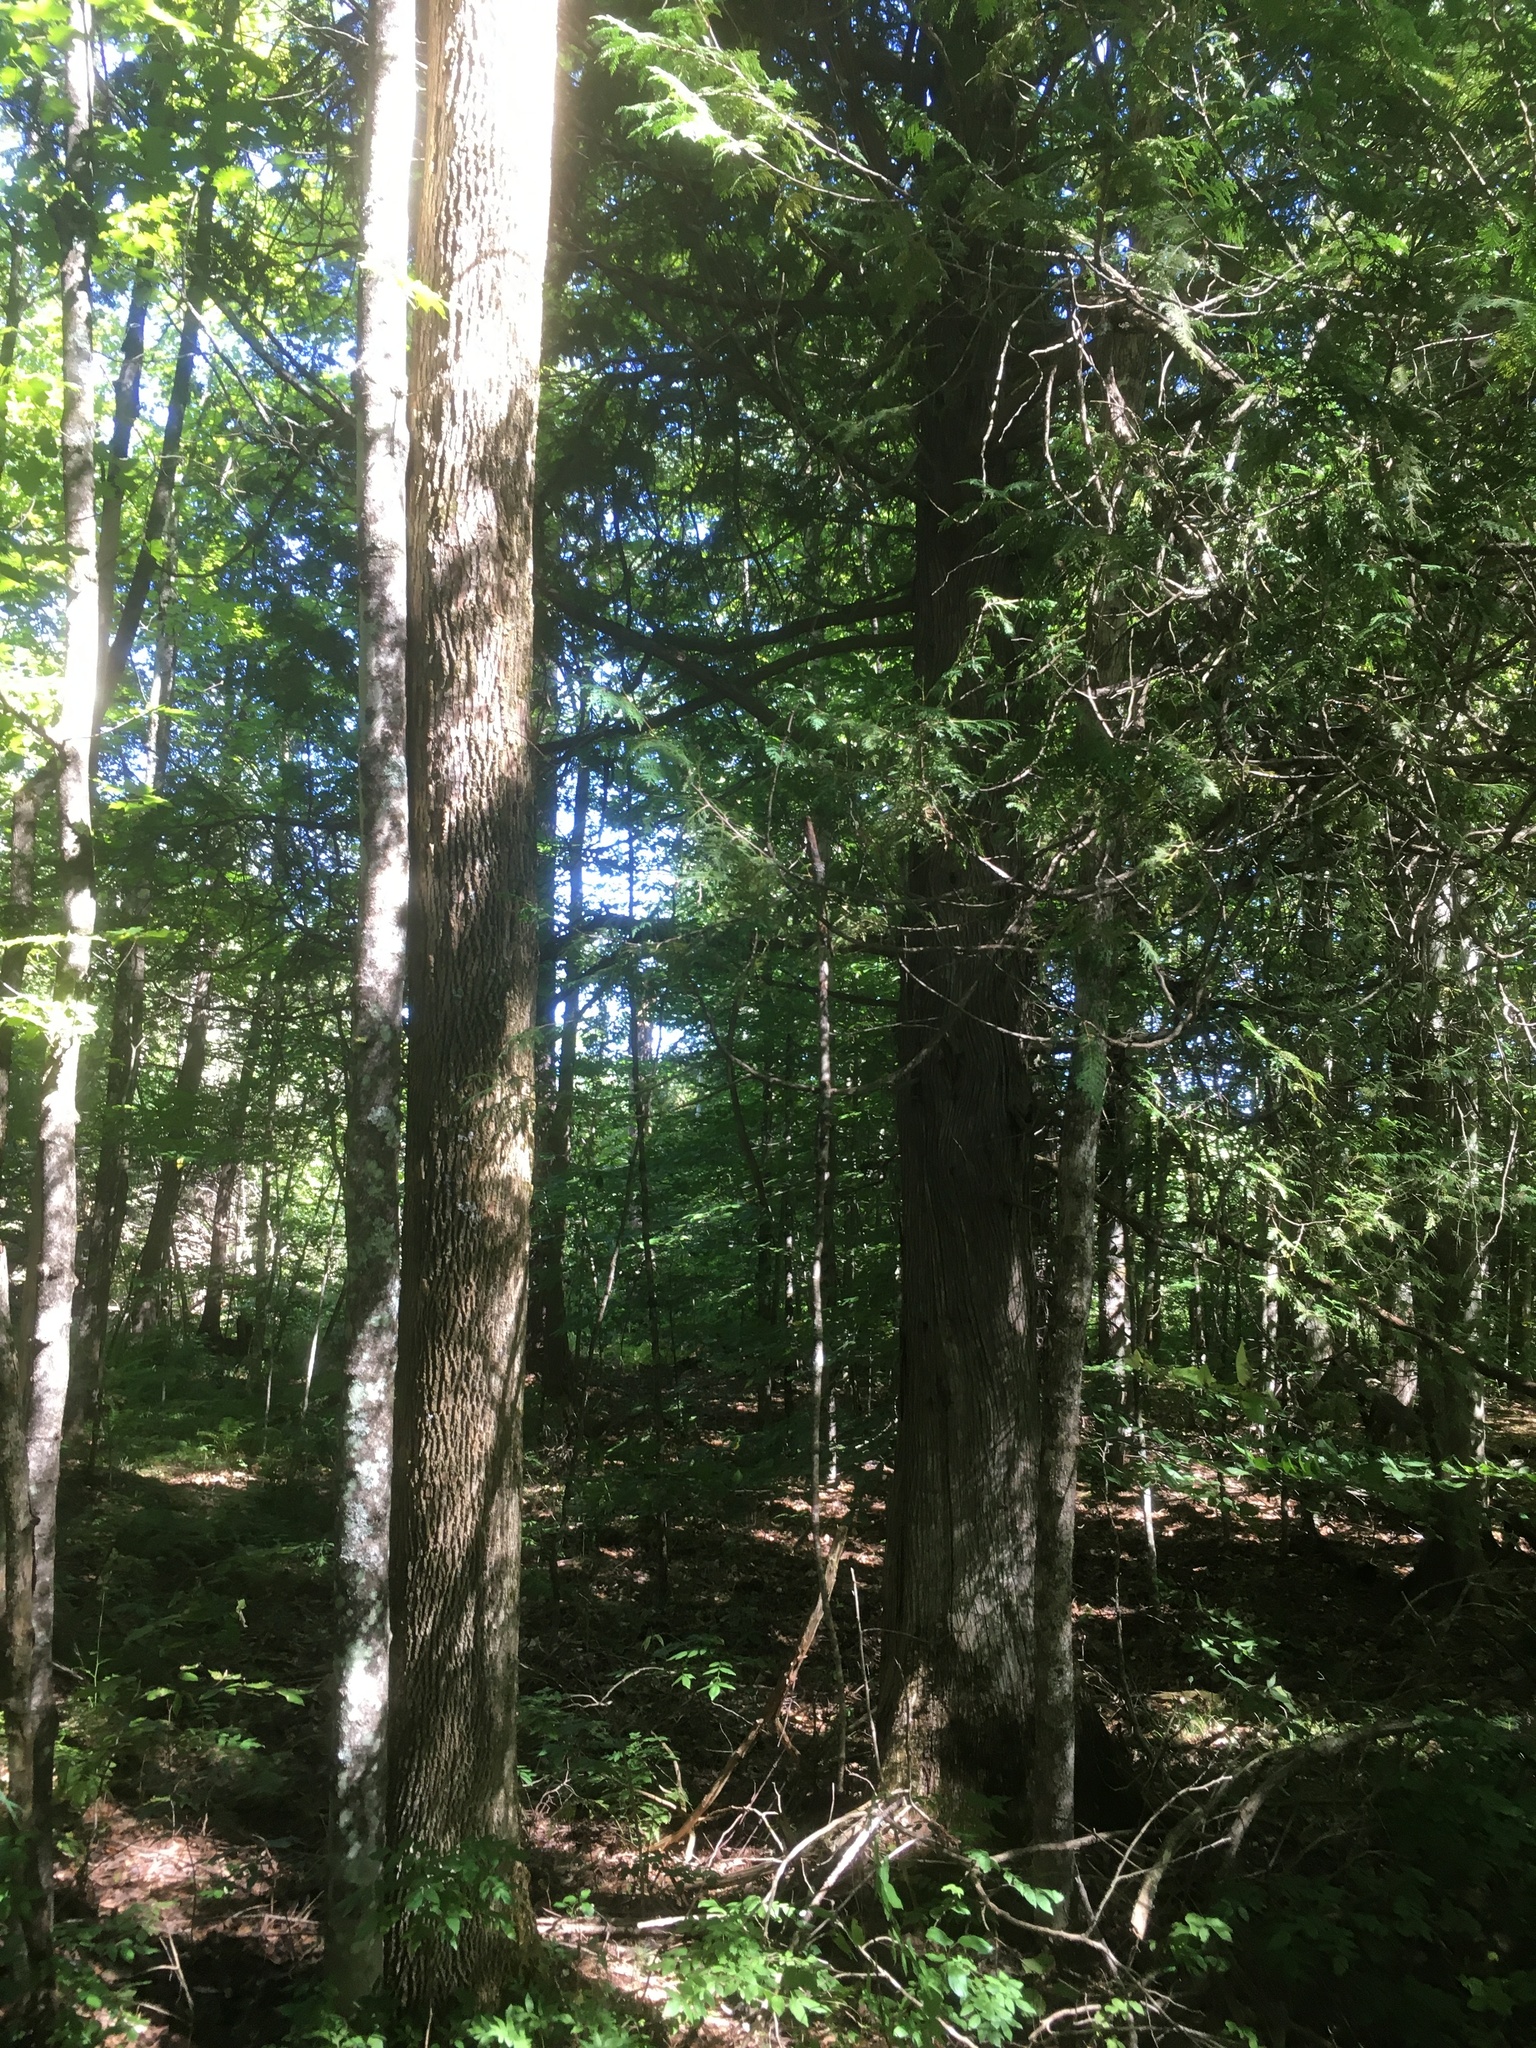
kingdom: Plantae
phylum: Tracheophyta
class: Pinopsida
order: Pinales
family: Cupressaceae
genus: Thuja
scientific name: Thuja occidentalis
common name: Northern white-cedar
